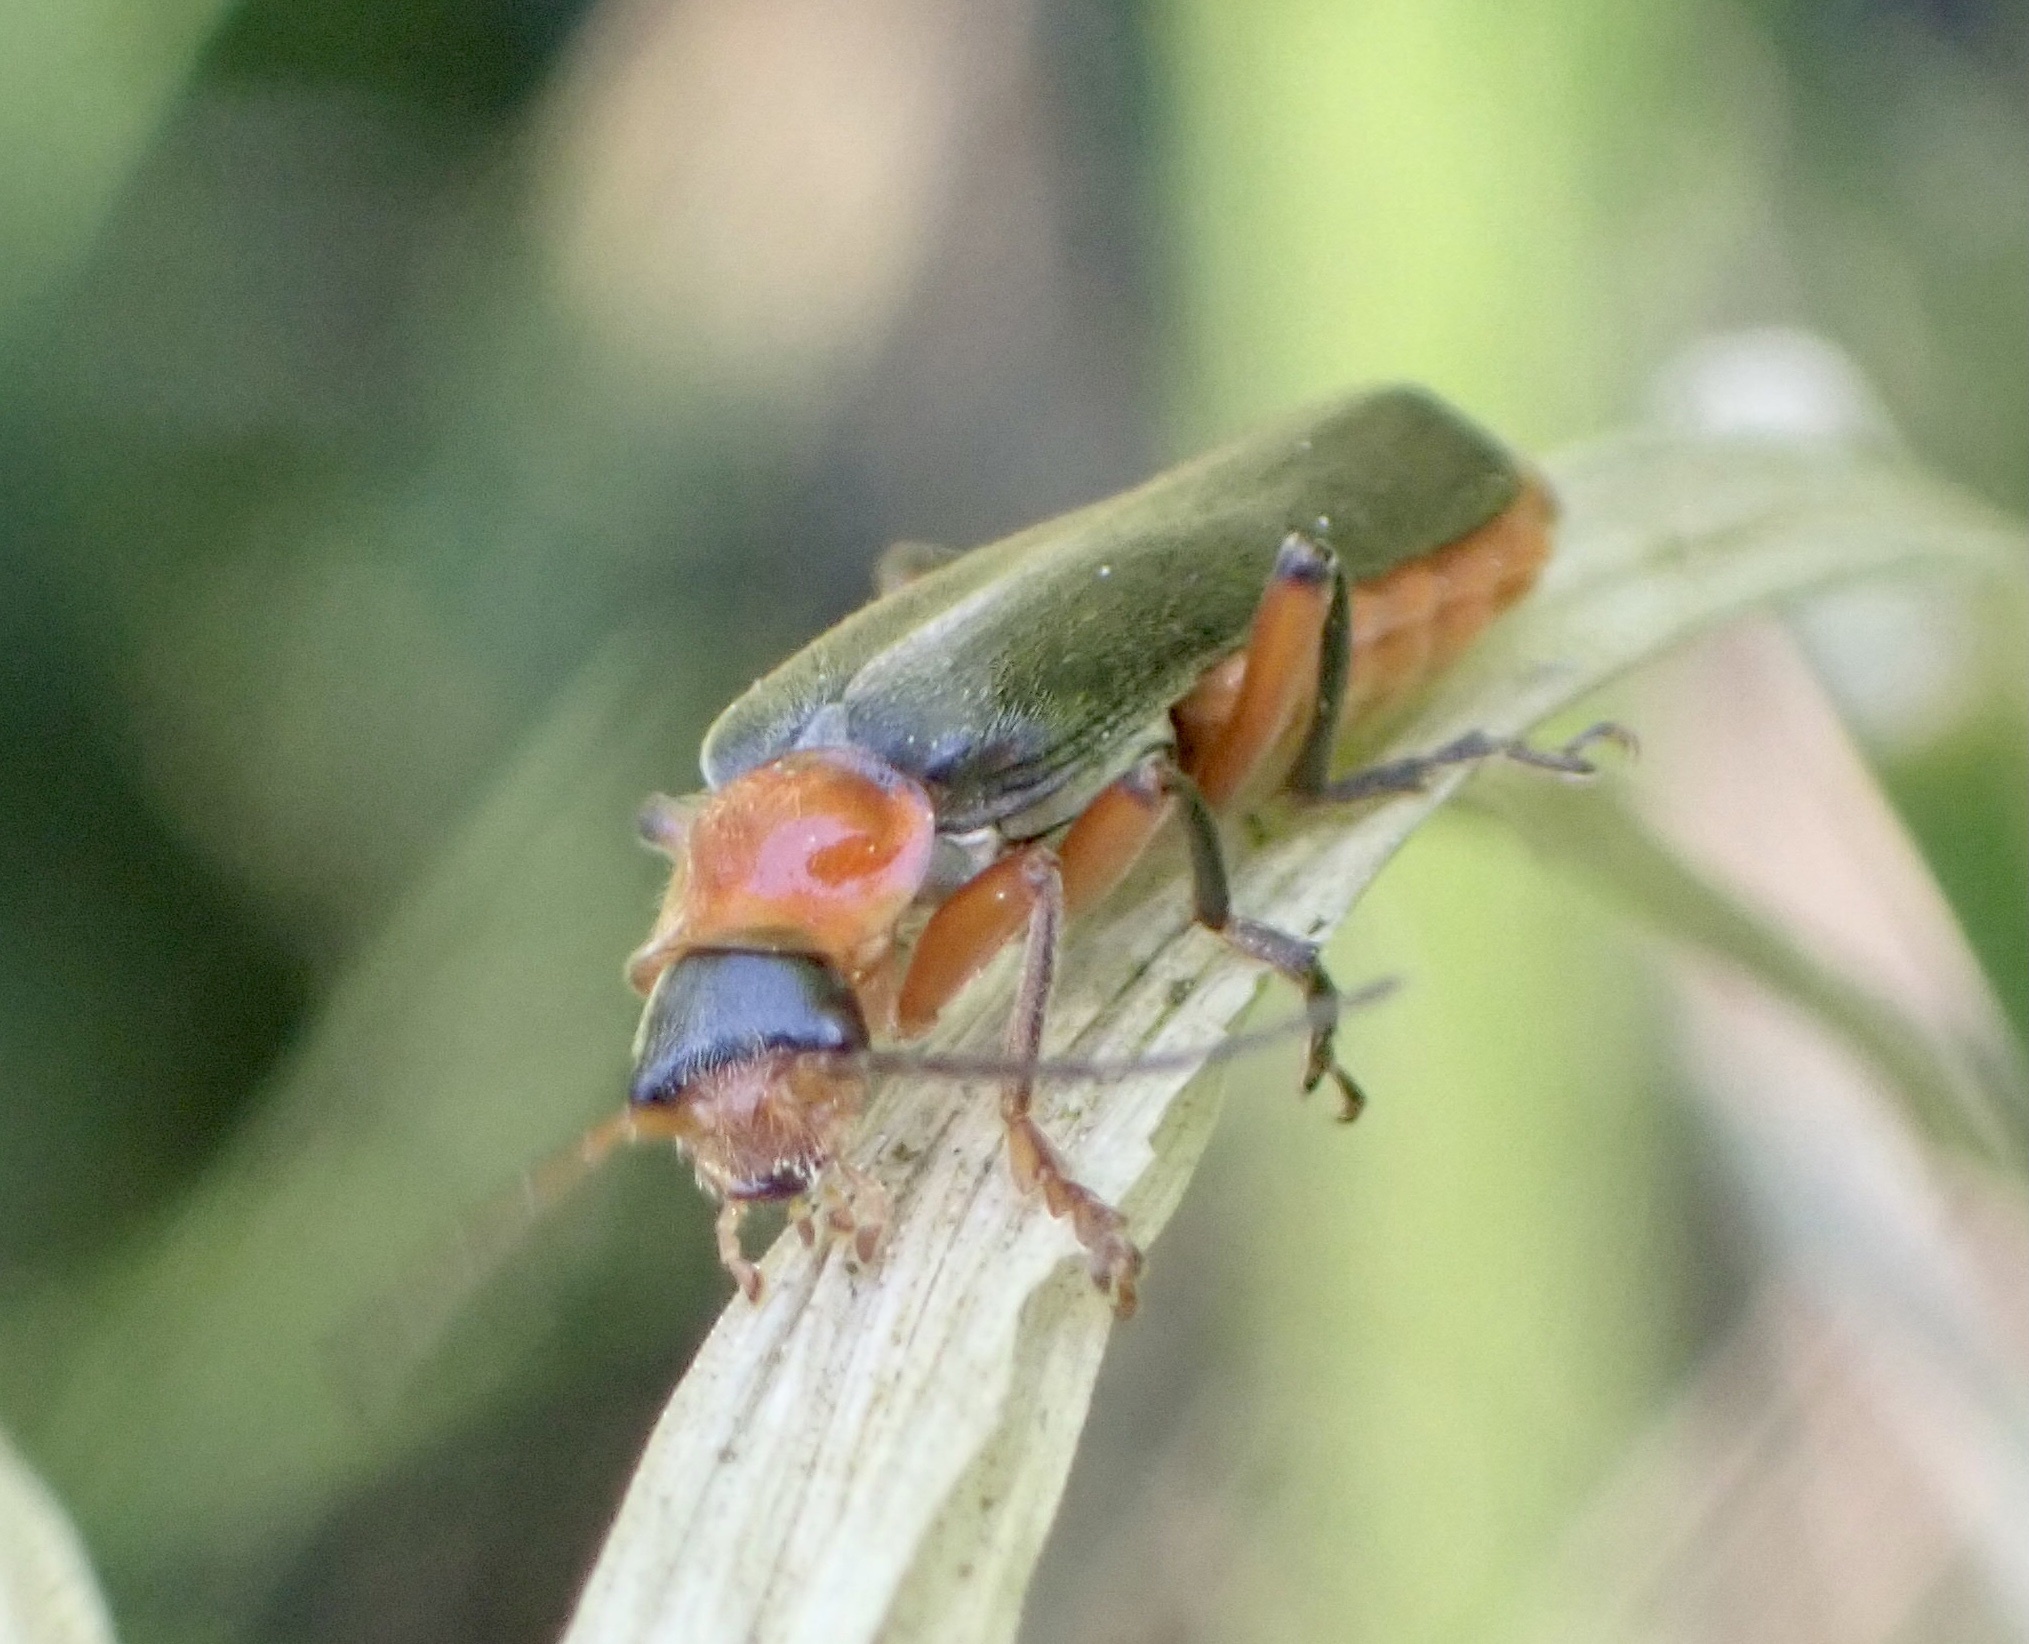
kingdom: Animalia
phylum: Arthropoda
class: Insecta
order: Coleoptera
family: Cantharidae
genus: Cantharis
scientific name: Cantharis pellucida
